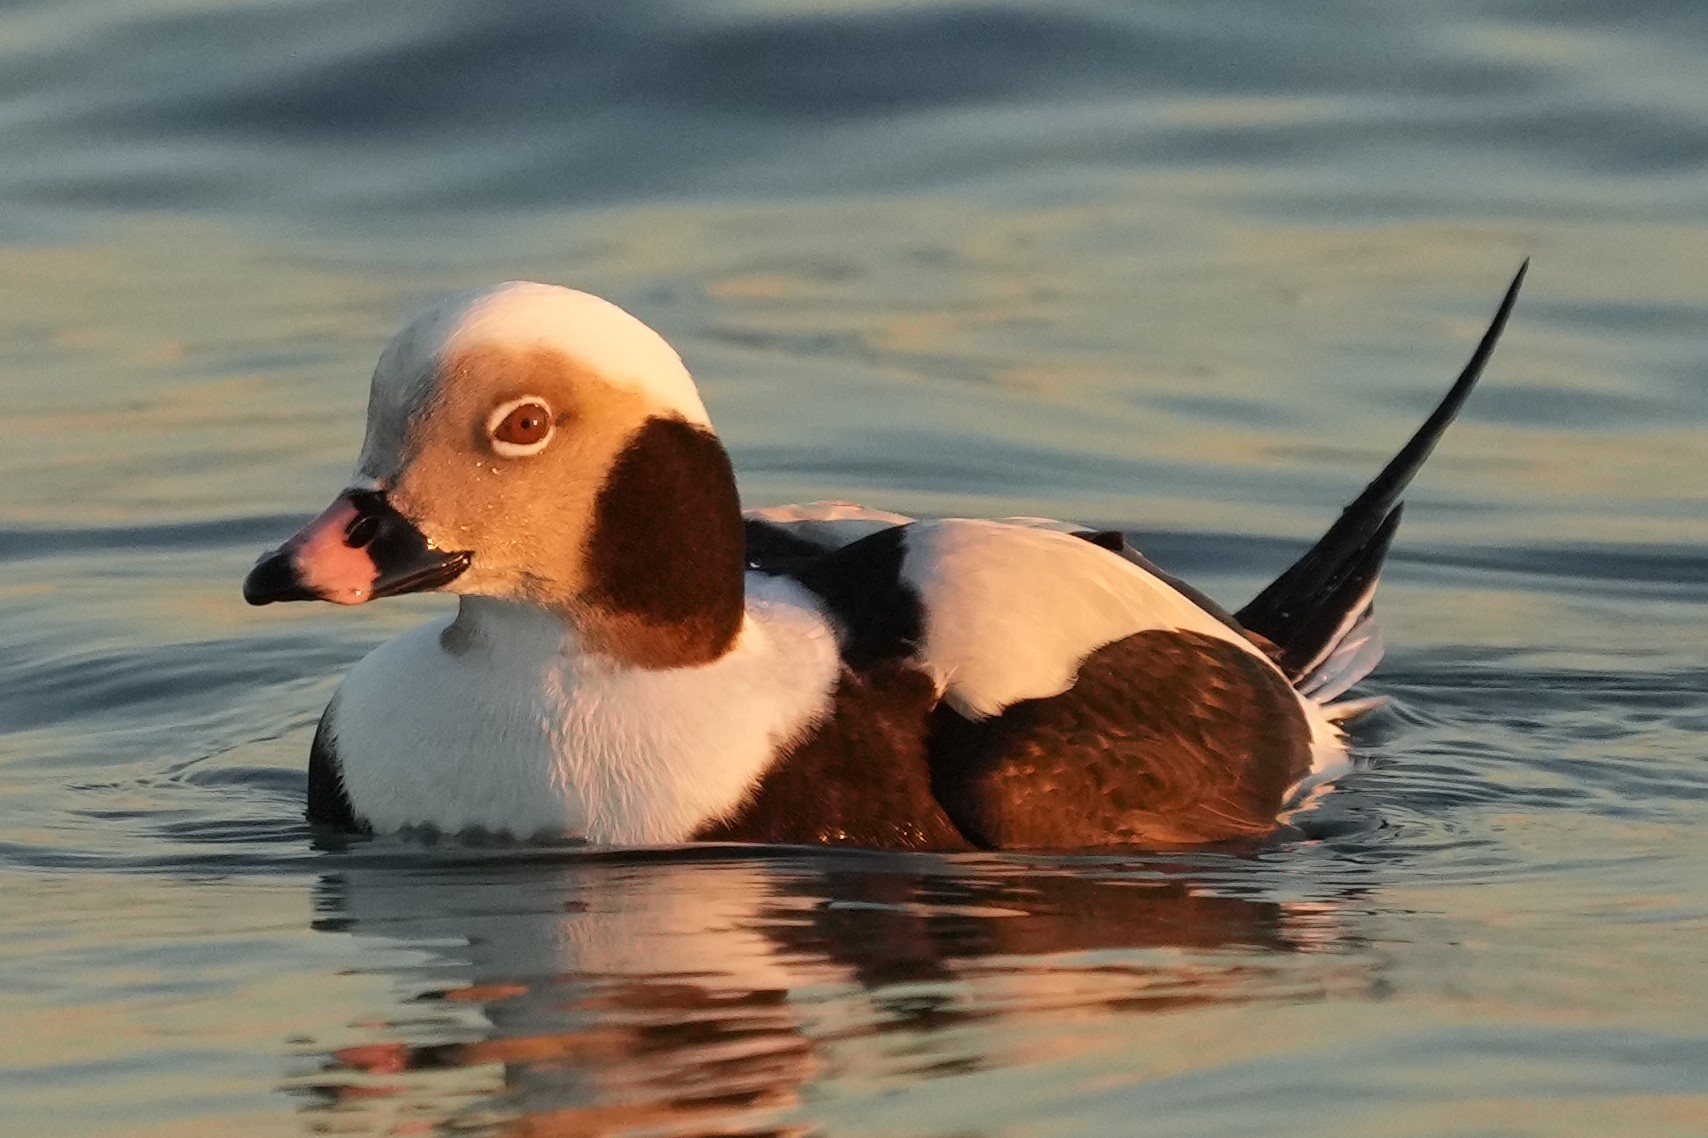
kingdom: Animalia
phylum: Chordata
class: Aves
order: Anseriformes
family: Anatidae
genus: Clangula
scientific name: Clangula hyemalis
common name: Long-tailed duck
